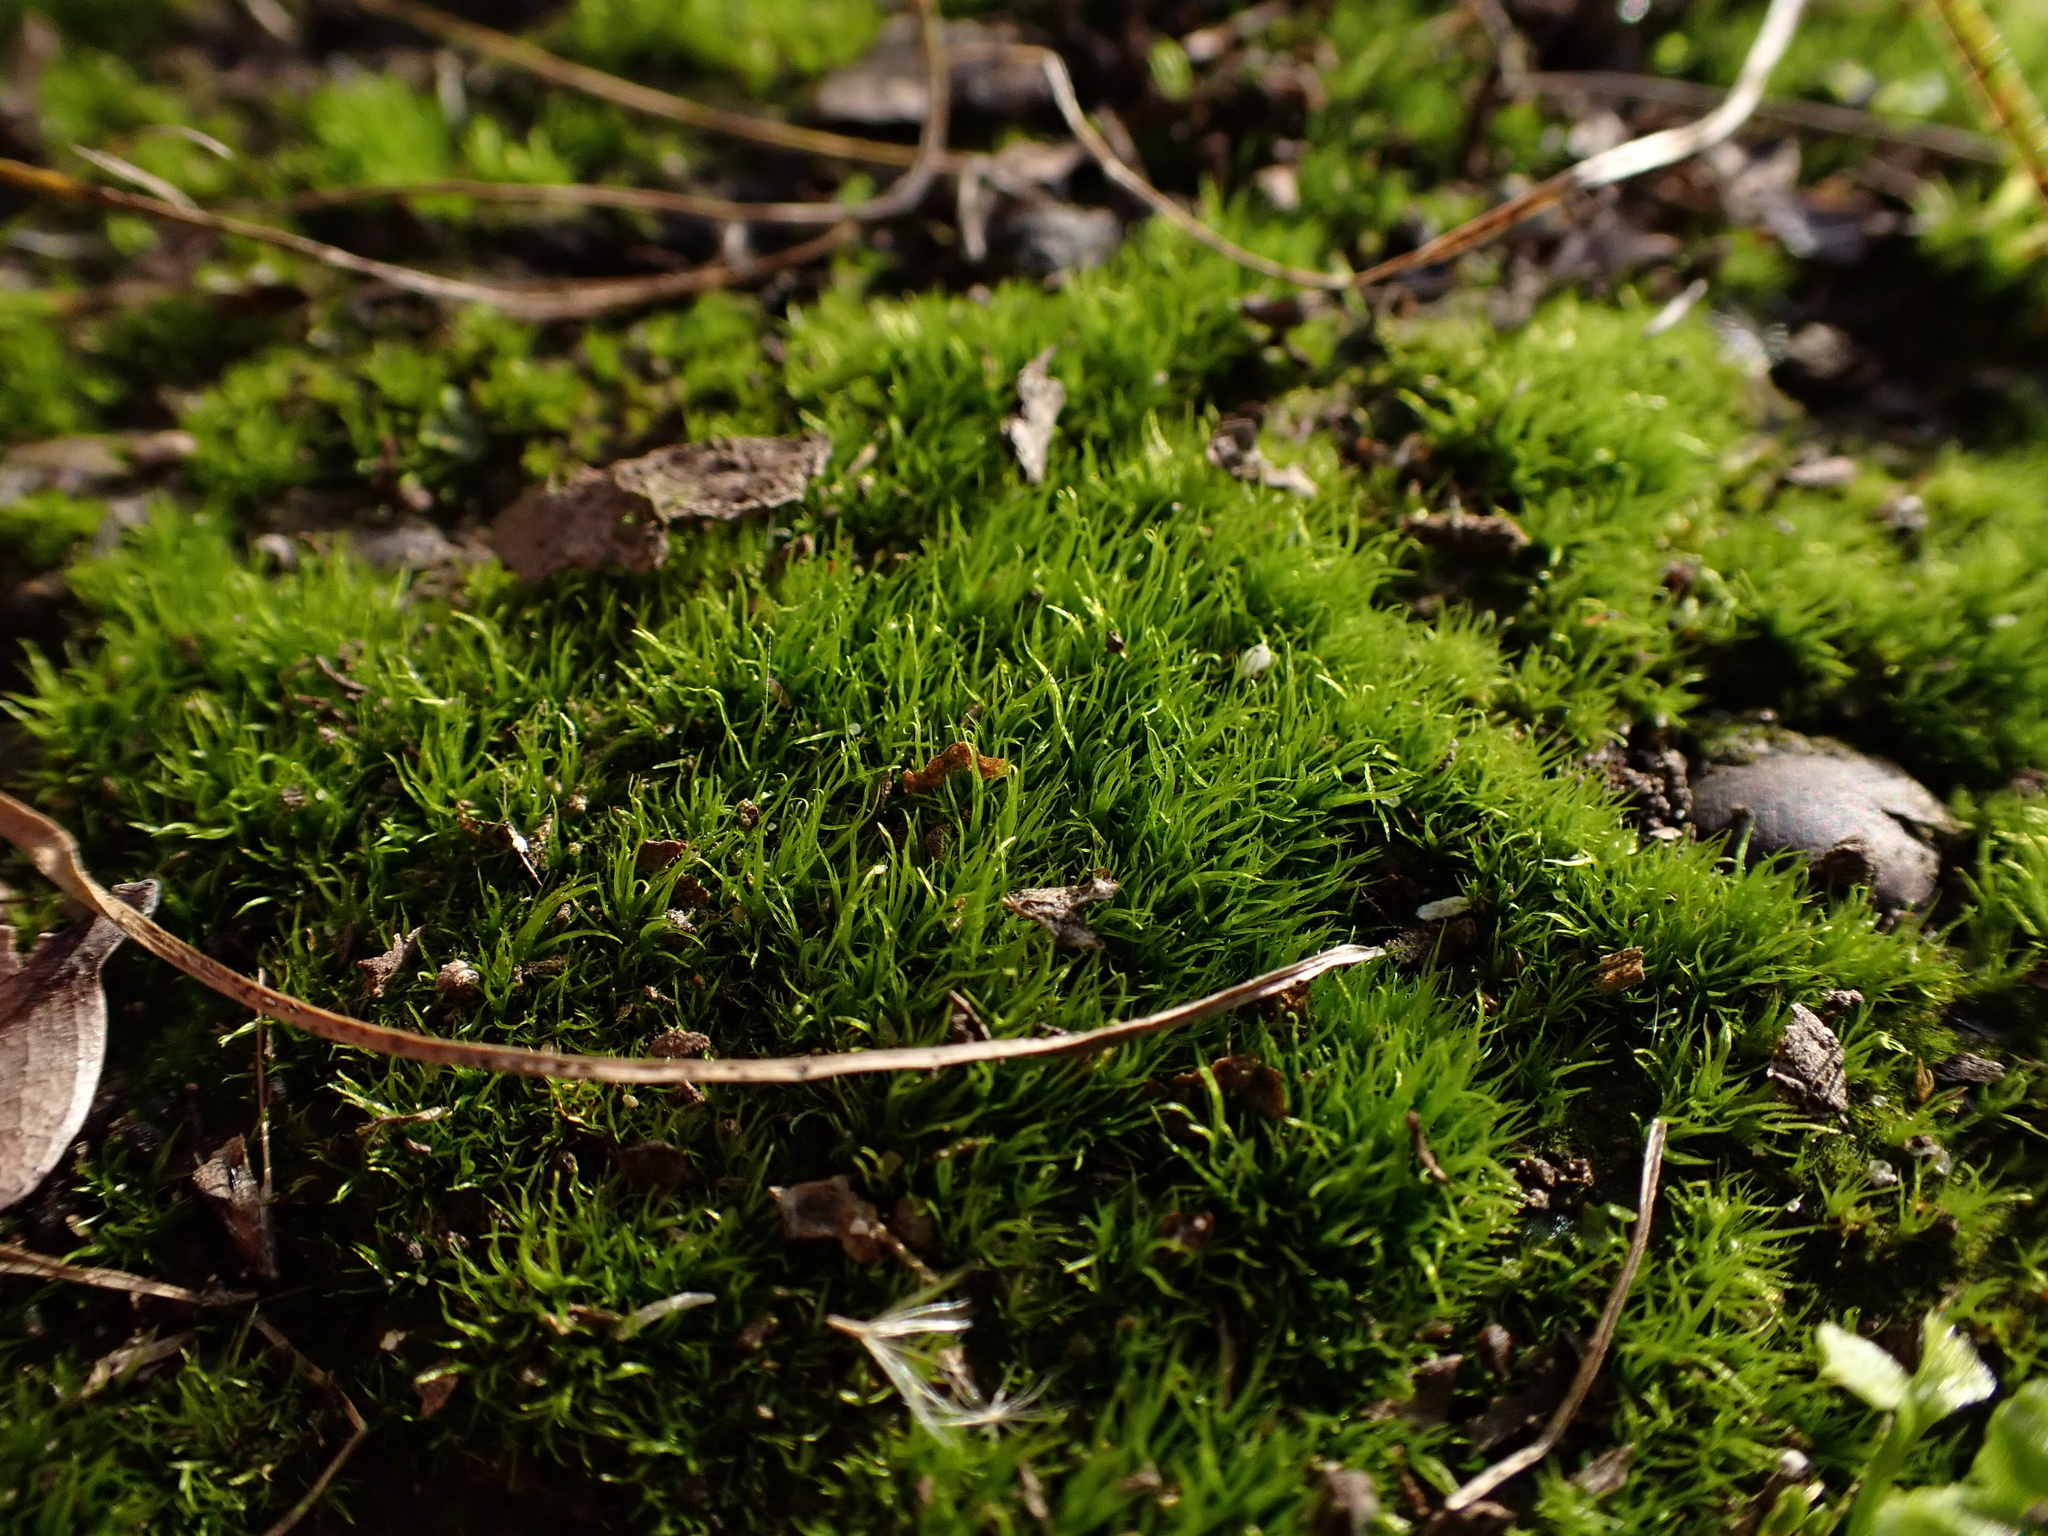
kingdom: Plantae
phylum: Bryophyta
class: Bryopsida
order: Dicranales
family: Ditrichaceae
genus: Ditrichum
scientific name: Ditrichum pallidum
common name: Pale cow-hair moss
